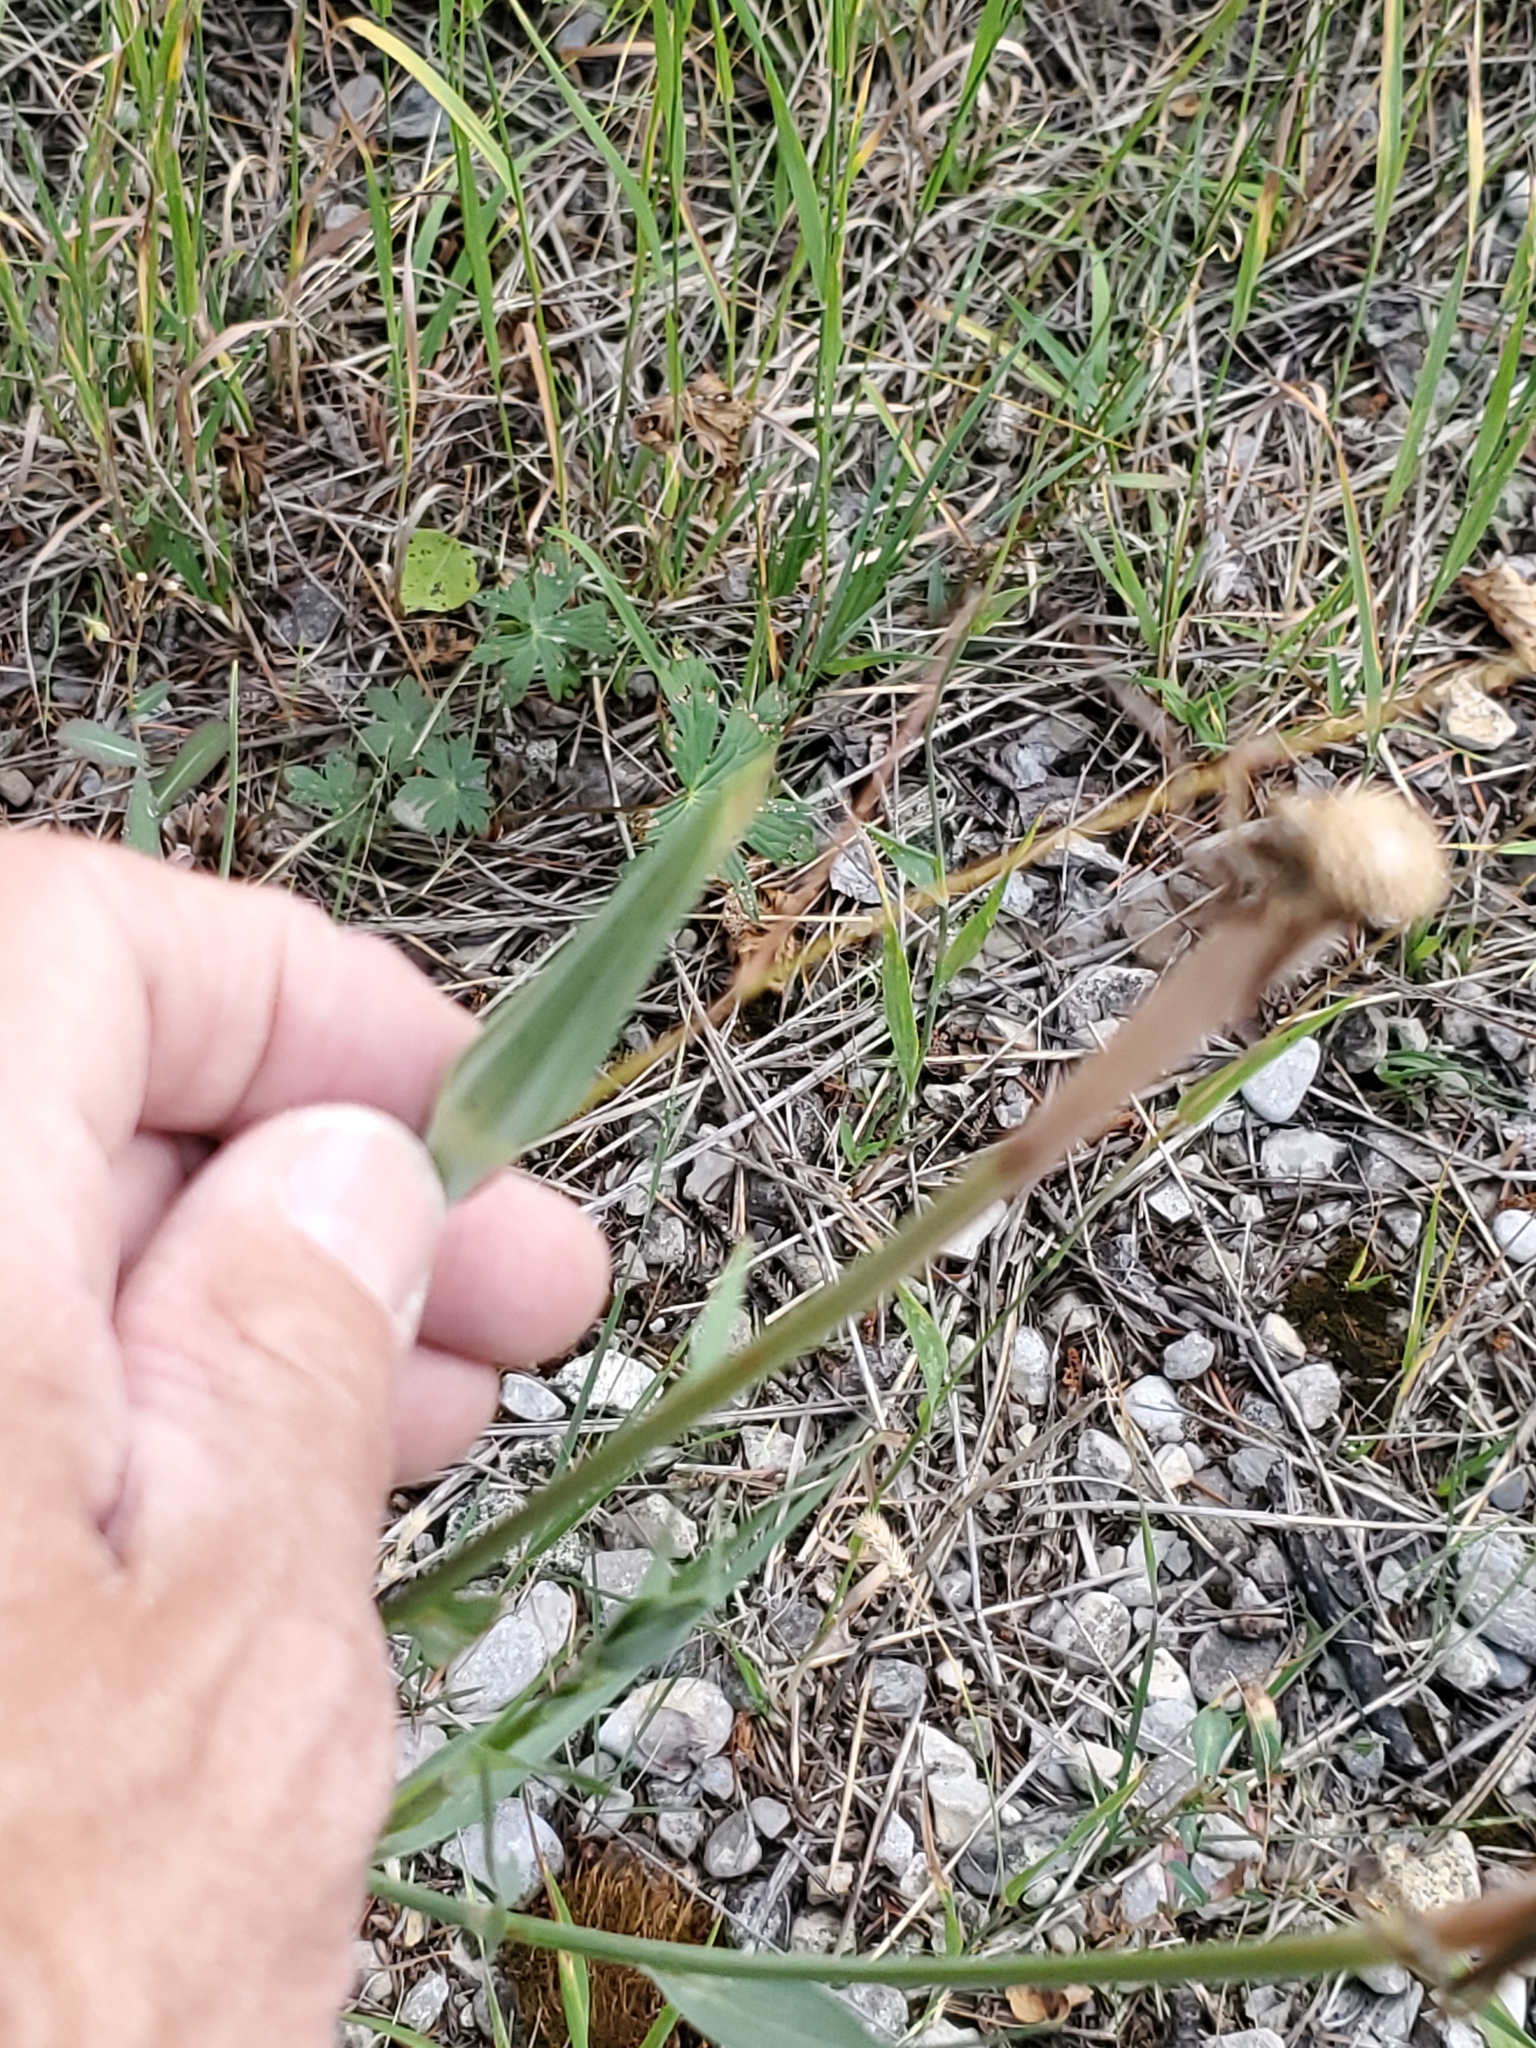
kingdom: Plantae
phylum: Tracheophyta
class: Magnoliopsida
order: Asterales
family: Asteraceae
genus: Tragopogon
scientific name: Tragopogon dubius
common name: Yellow salsify
